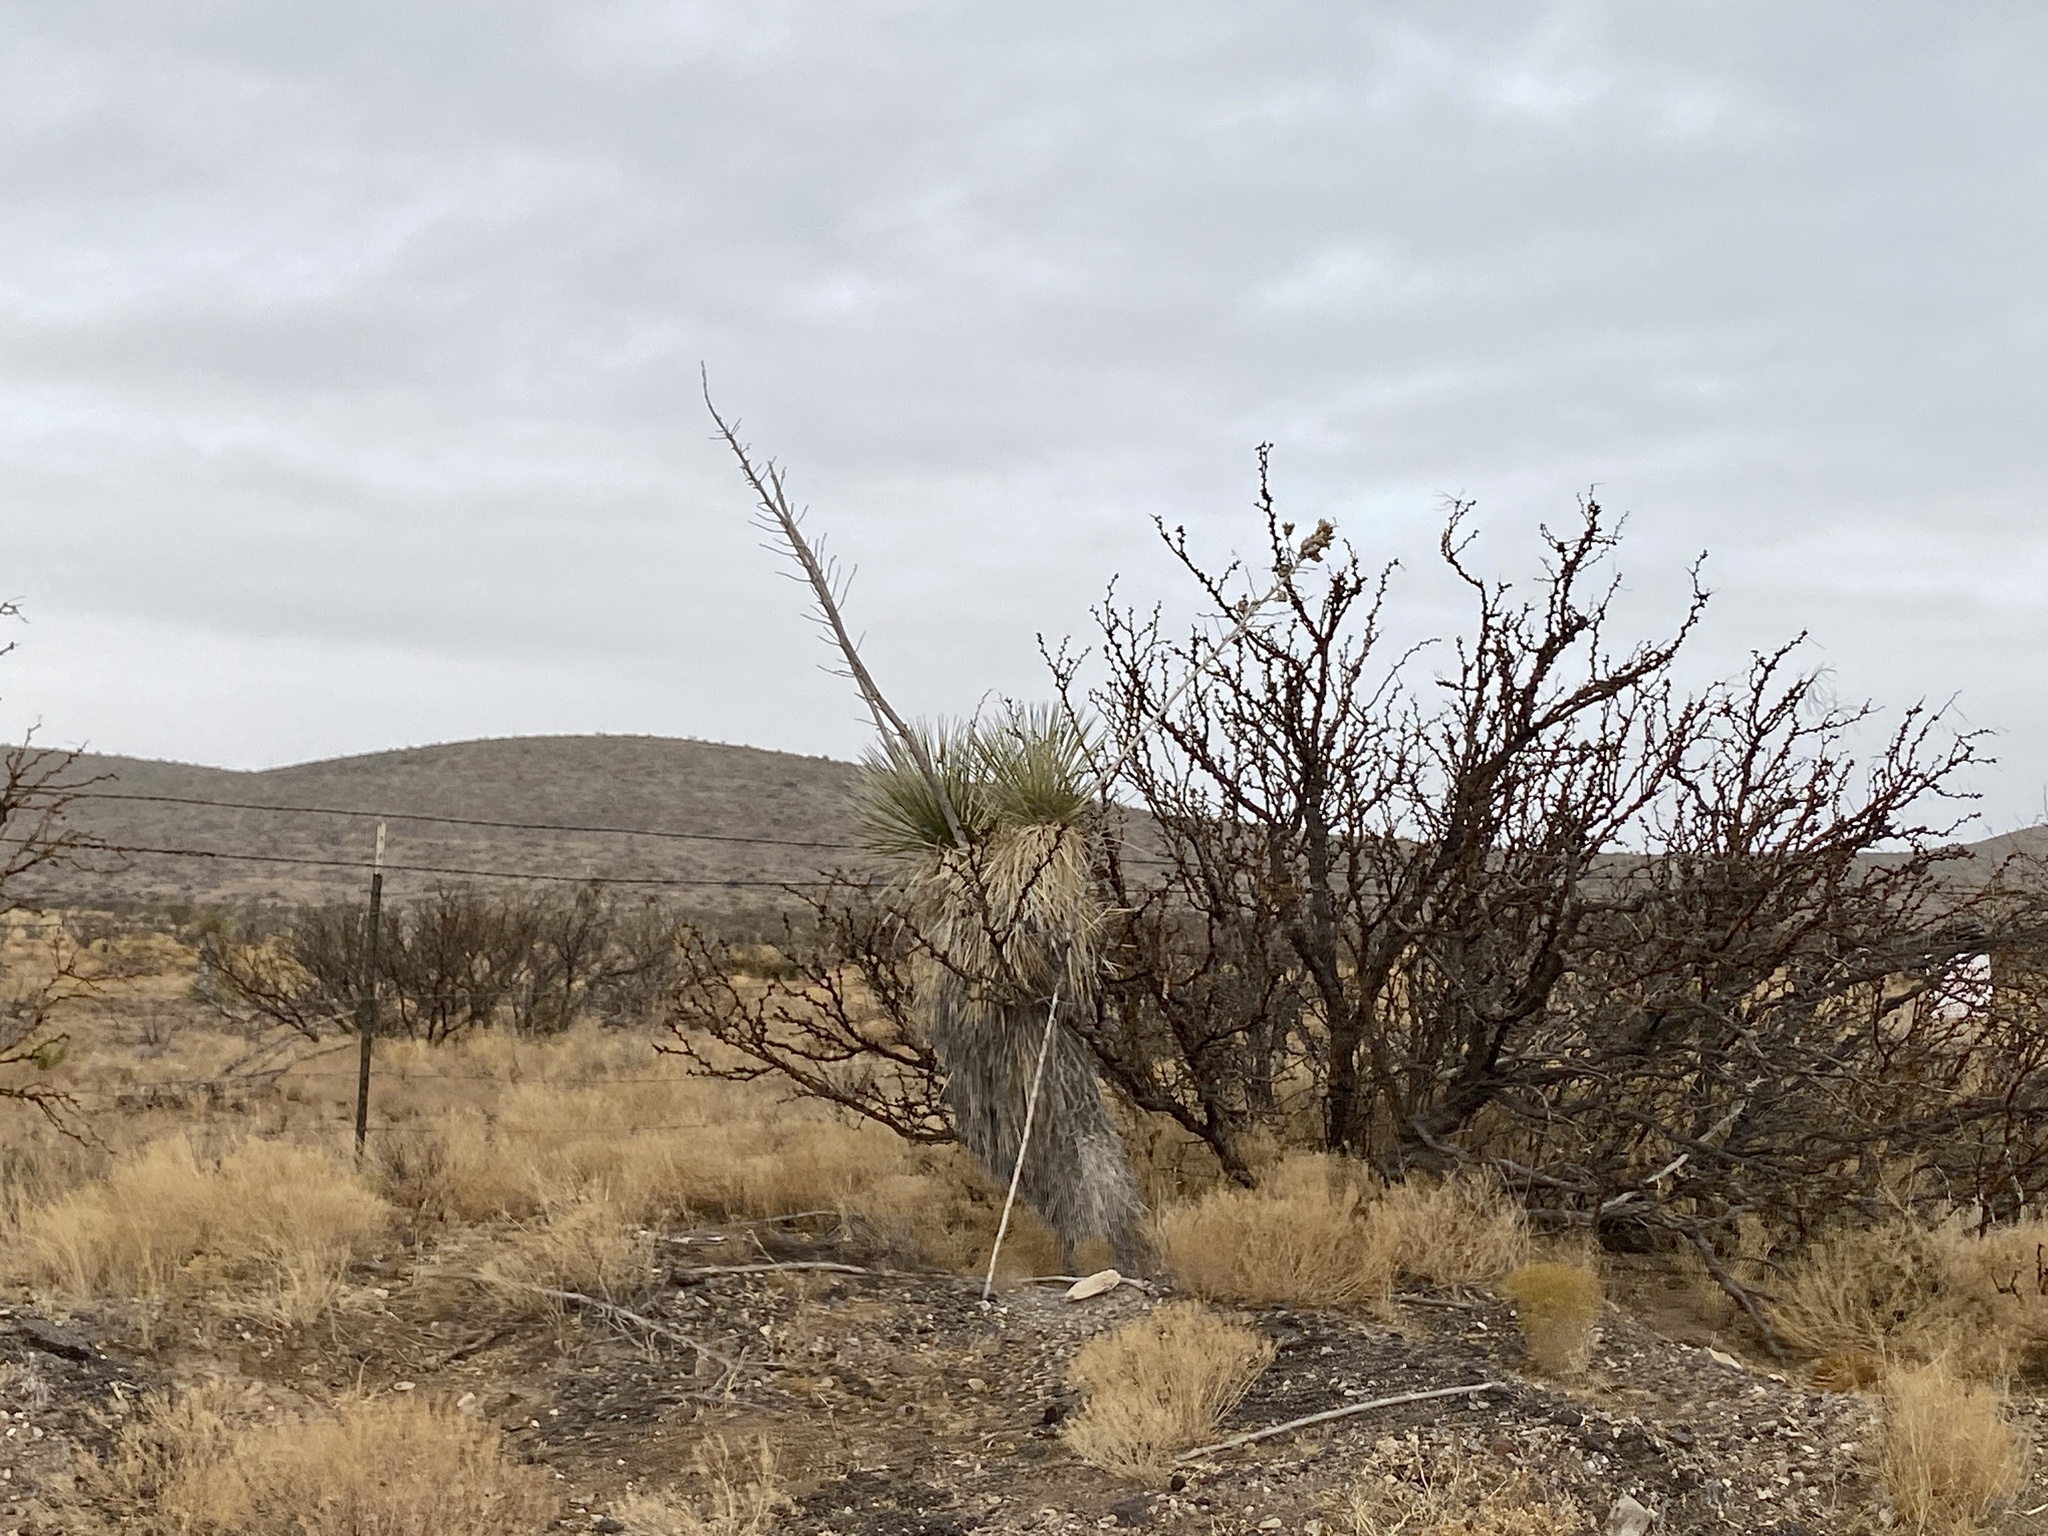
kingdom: Plantae
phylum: Tracheophyta
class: Liliopsida
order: Asparagales
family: Asparagaceae
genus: Yucca
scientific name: Yucca elata
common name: Palmella
